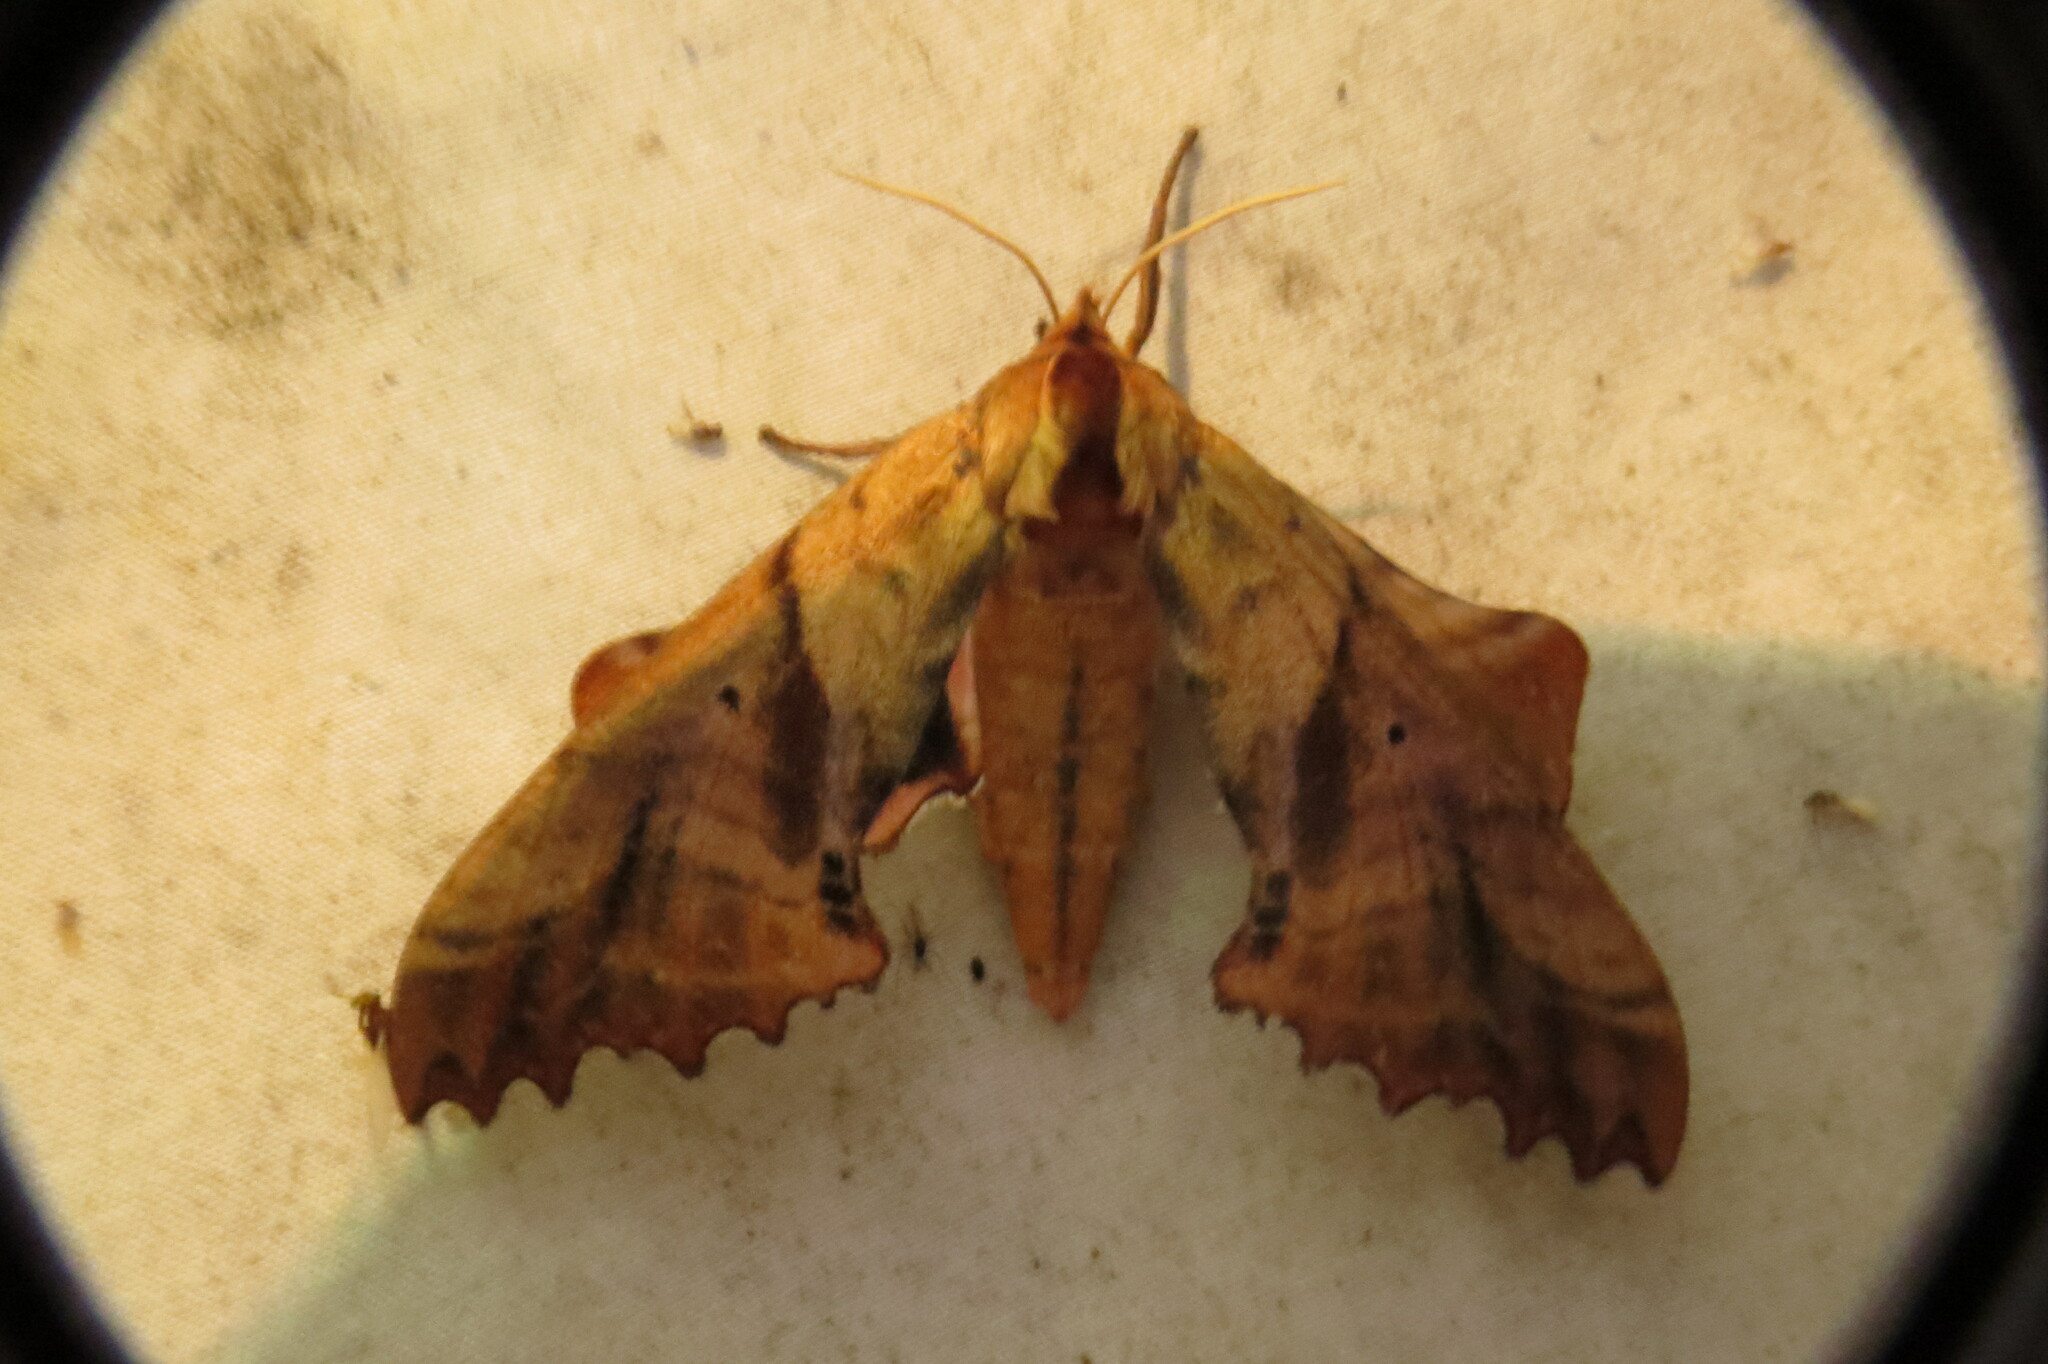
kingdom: Animalia
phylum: Arthropoda
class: Insecta
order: Lepidoptera
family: Sphingidae
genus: Paonias
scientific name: Paonias excaecata
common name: Blind-eyed sphinx
